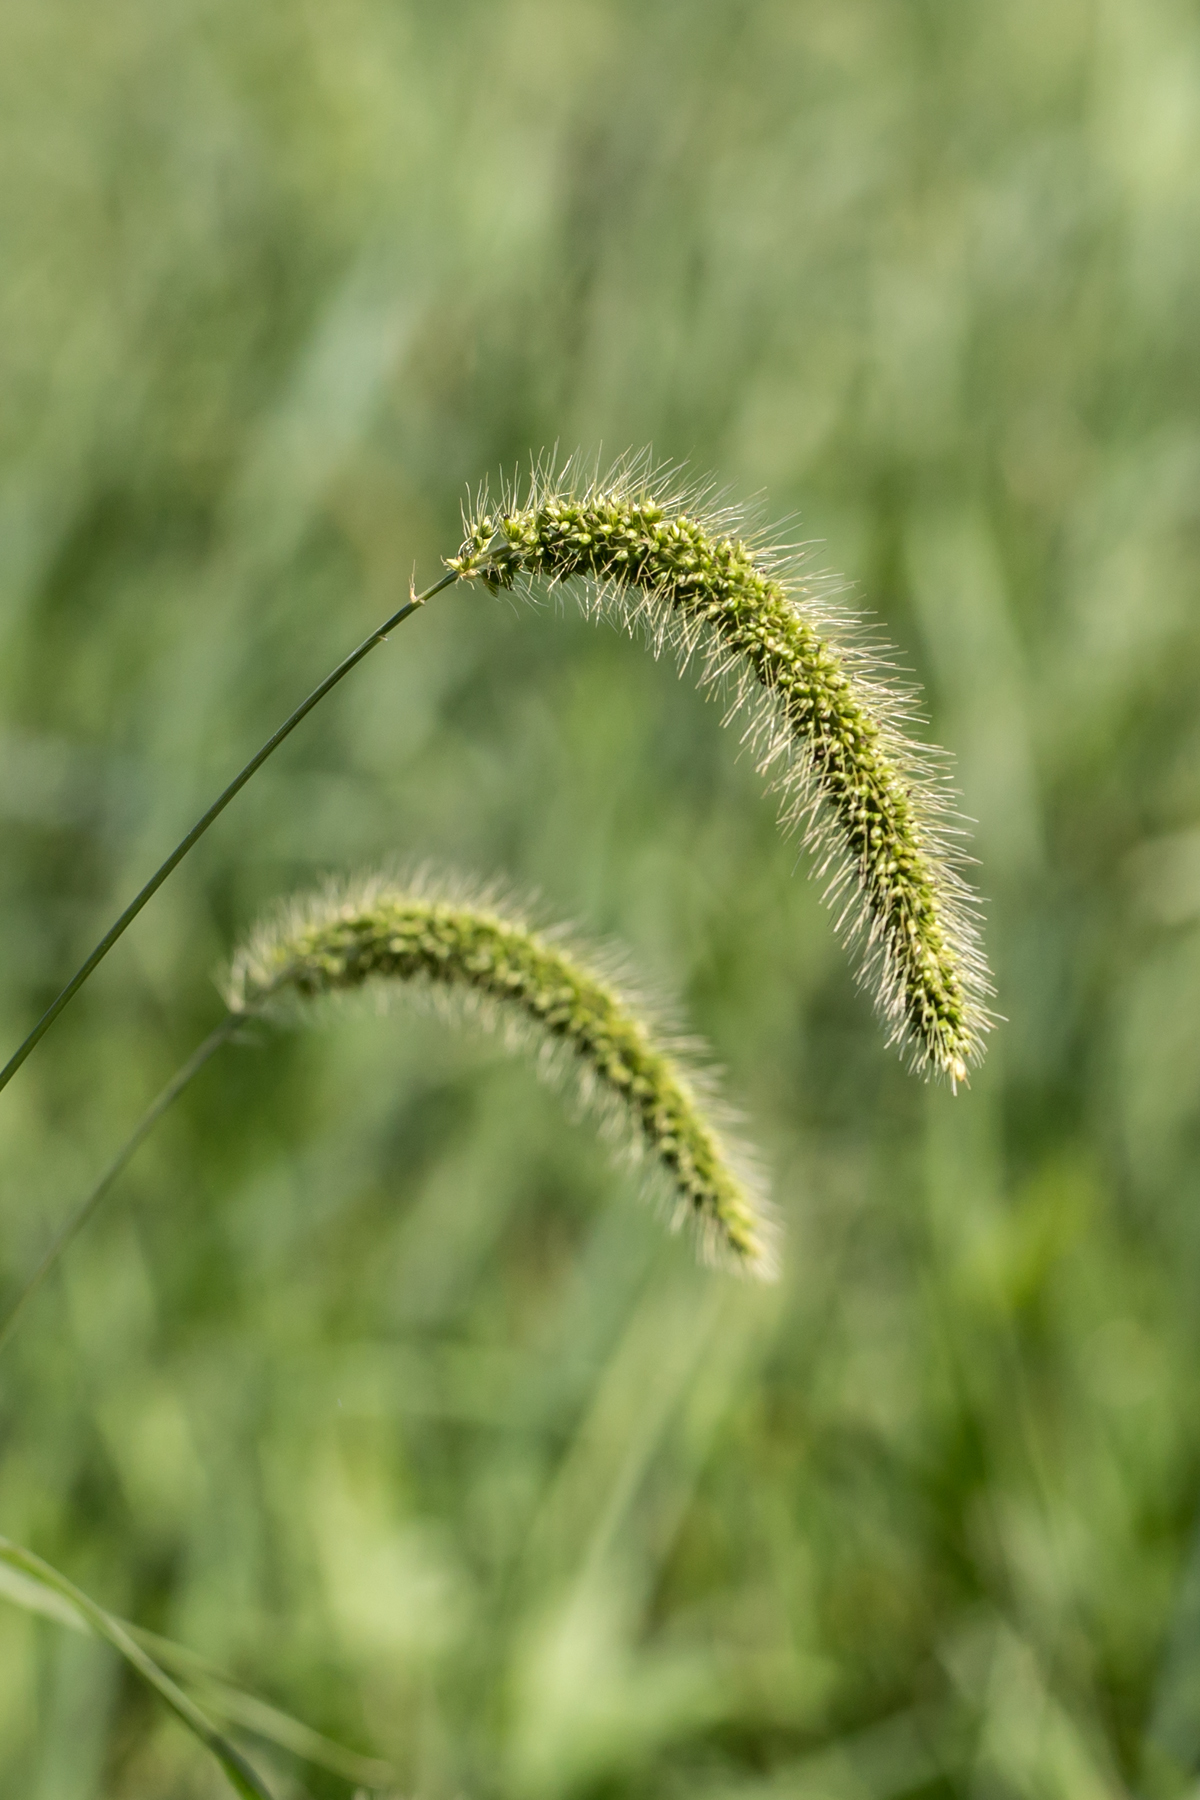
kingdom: Plantae
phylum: Tracheophyta
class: Liliopsida
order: Poales
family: Poaceae
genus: Setaria
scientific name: Setaria faberi
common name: Nodding bristle-grass
